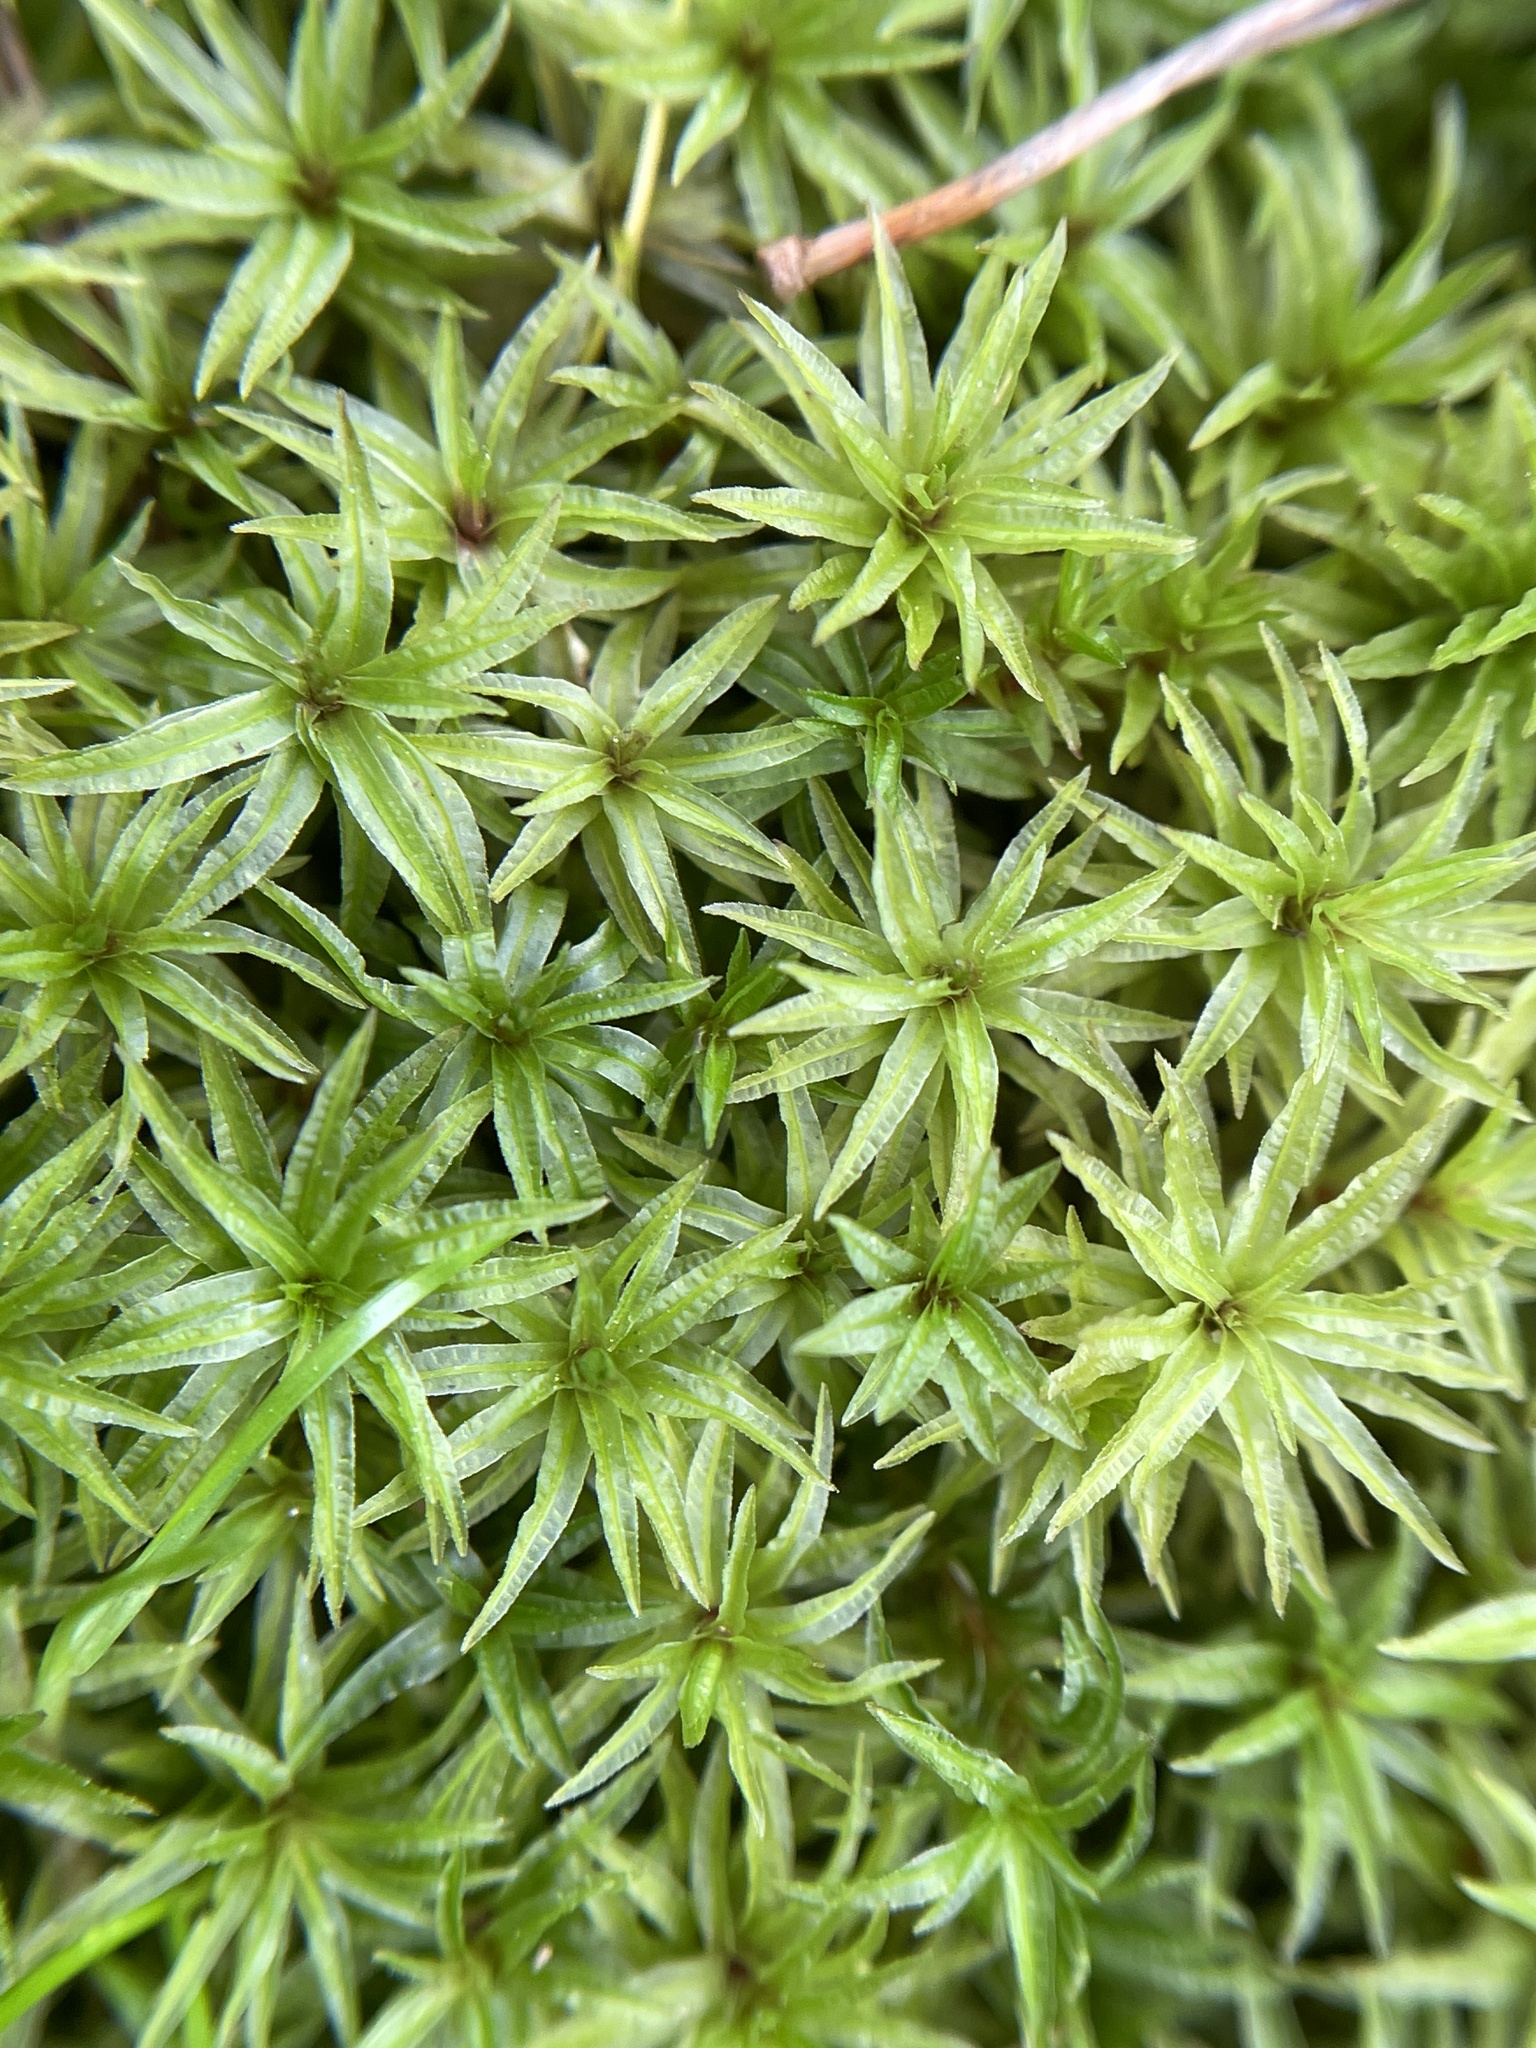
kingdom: Plantae
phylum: Bryophyta
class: Polytrichopsida
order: Polytrichales
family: Polytrichaceae
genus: Atrichum
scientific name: Atrichum
